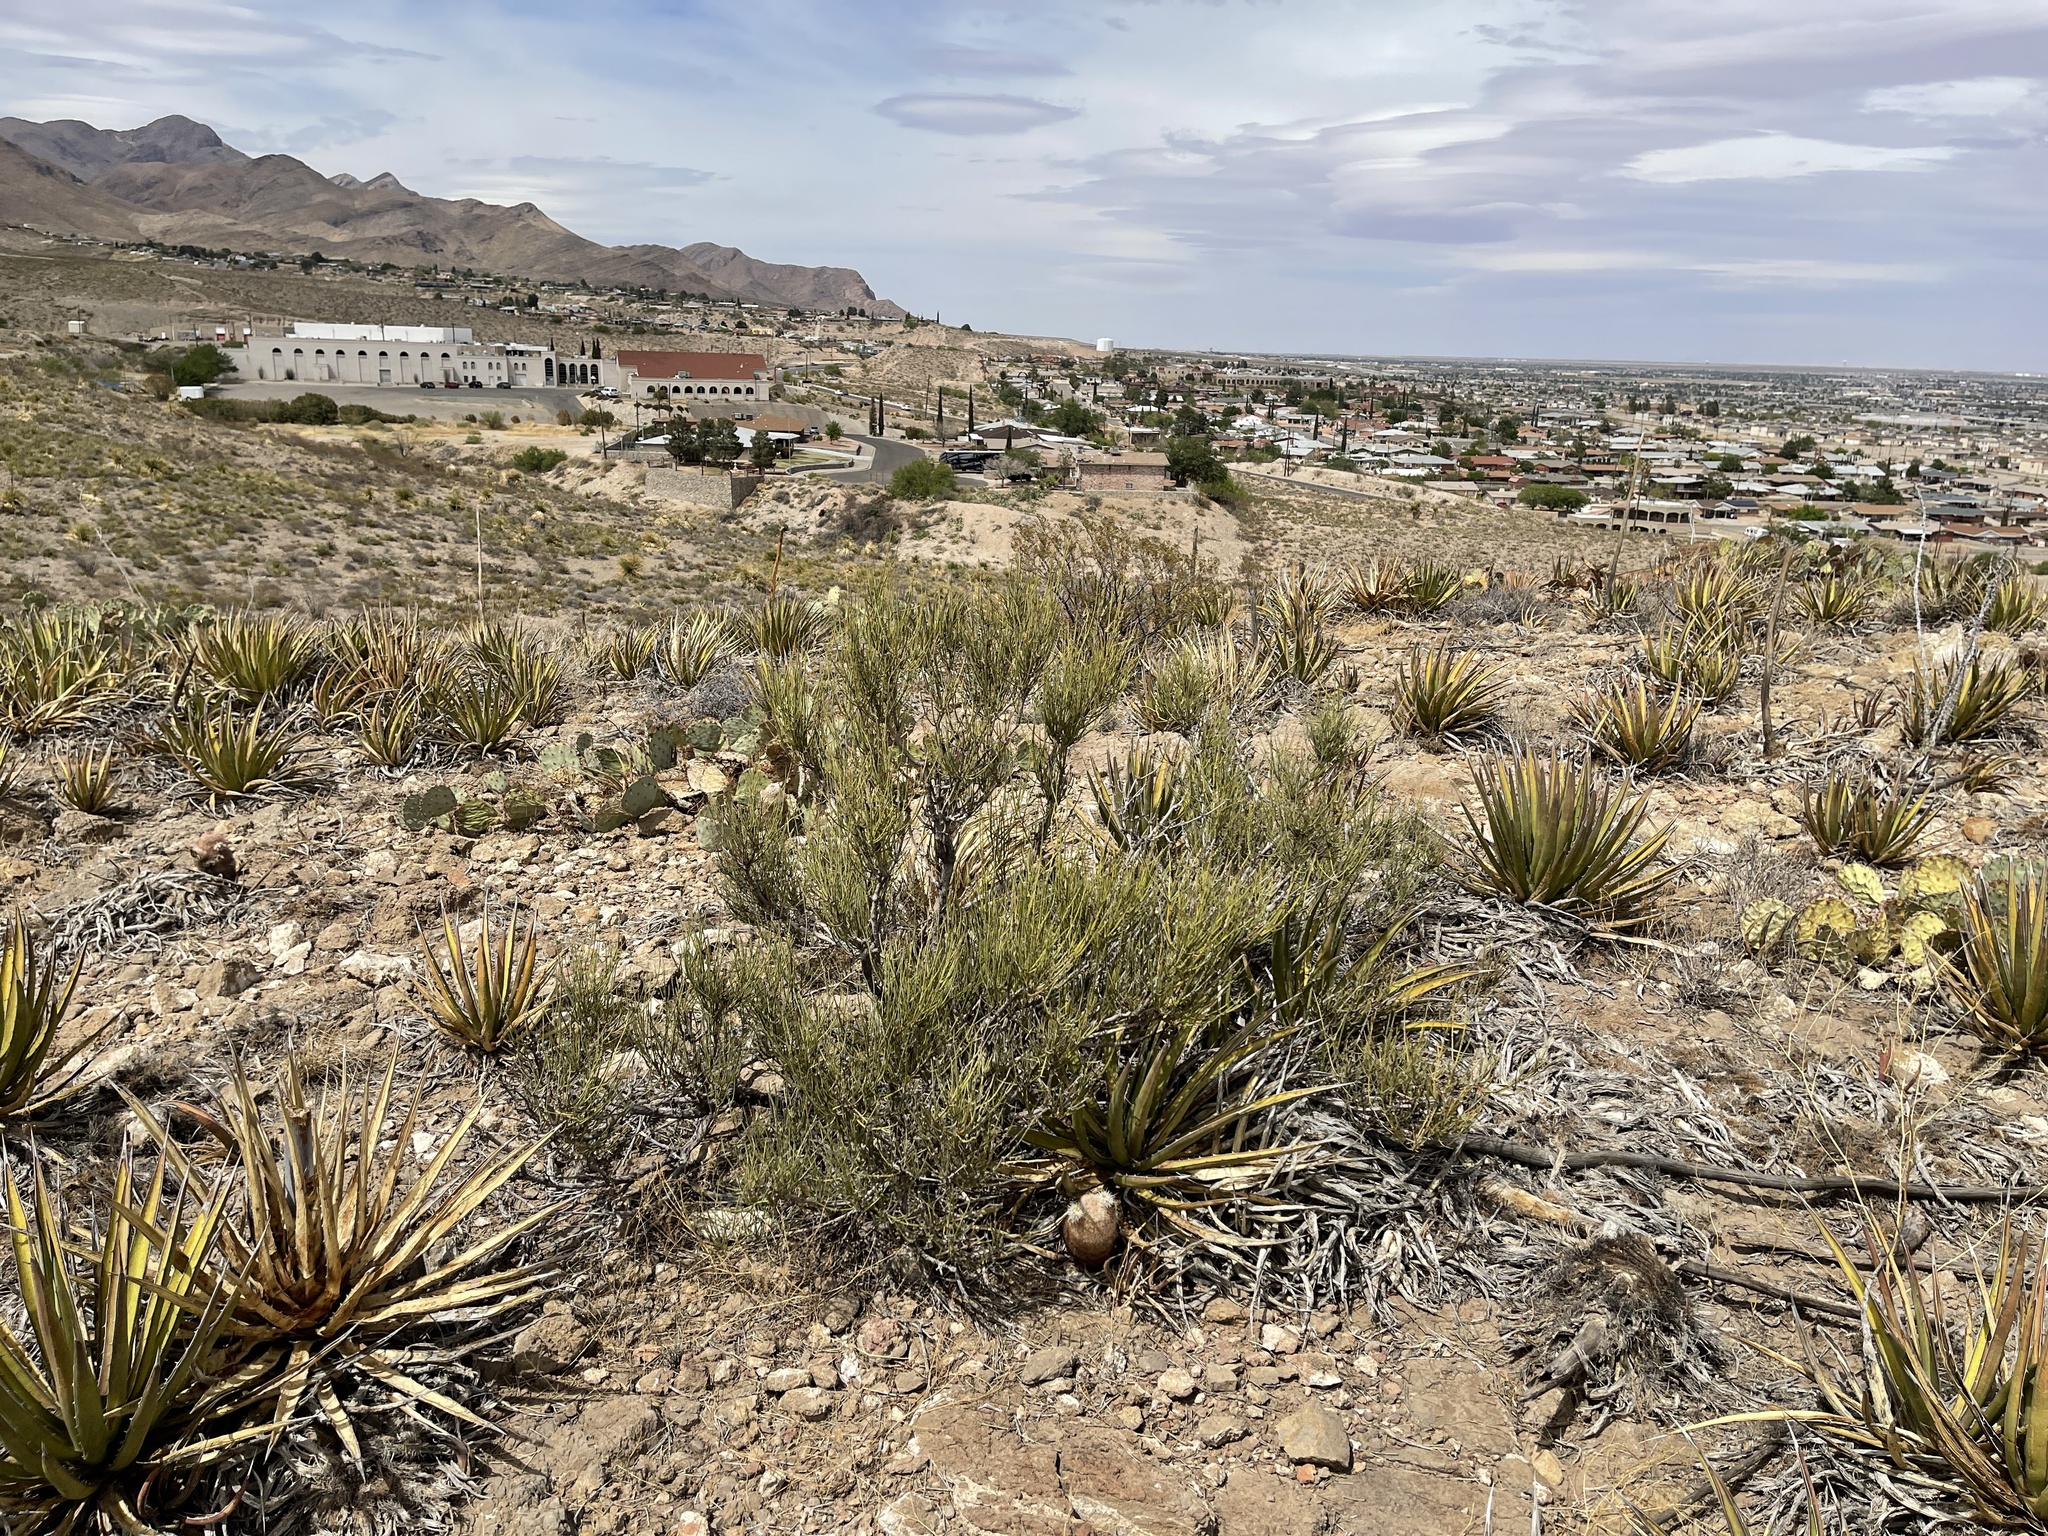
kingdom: Plantae
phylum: Tracheophyta
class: Gnetopsida
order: Ephedrales
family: Ephedraceae
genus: Ephedra
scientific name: Ephedra viridis
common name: Green ephedra
